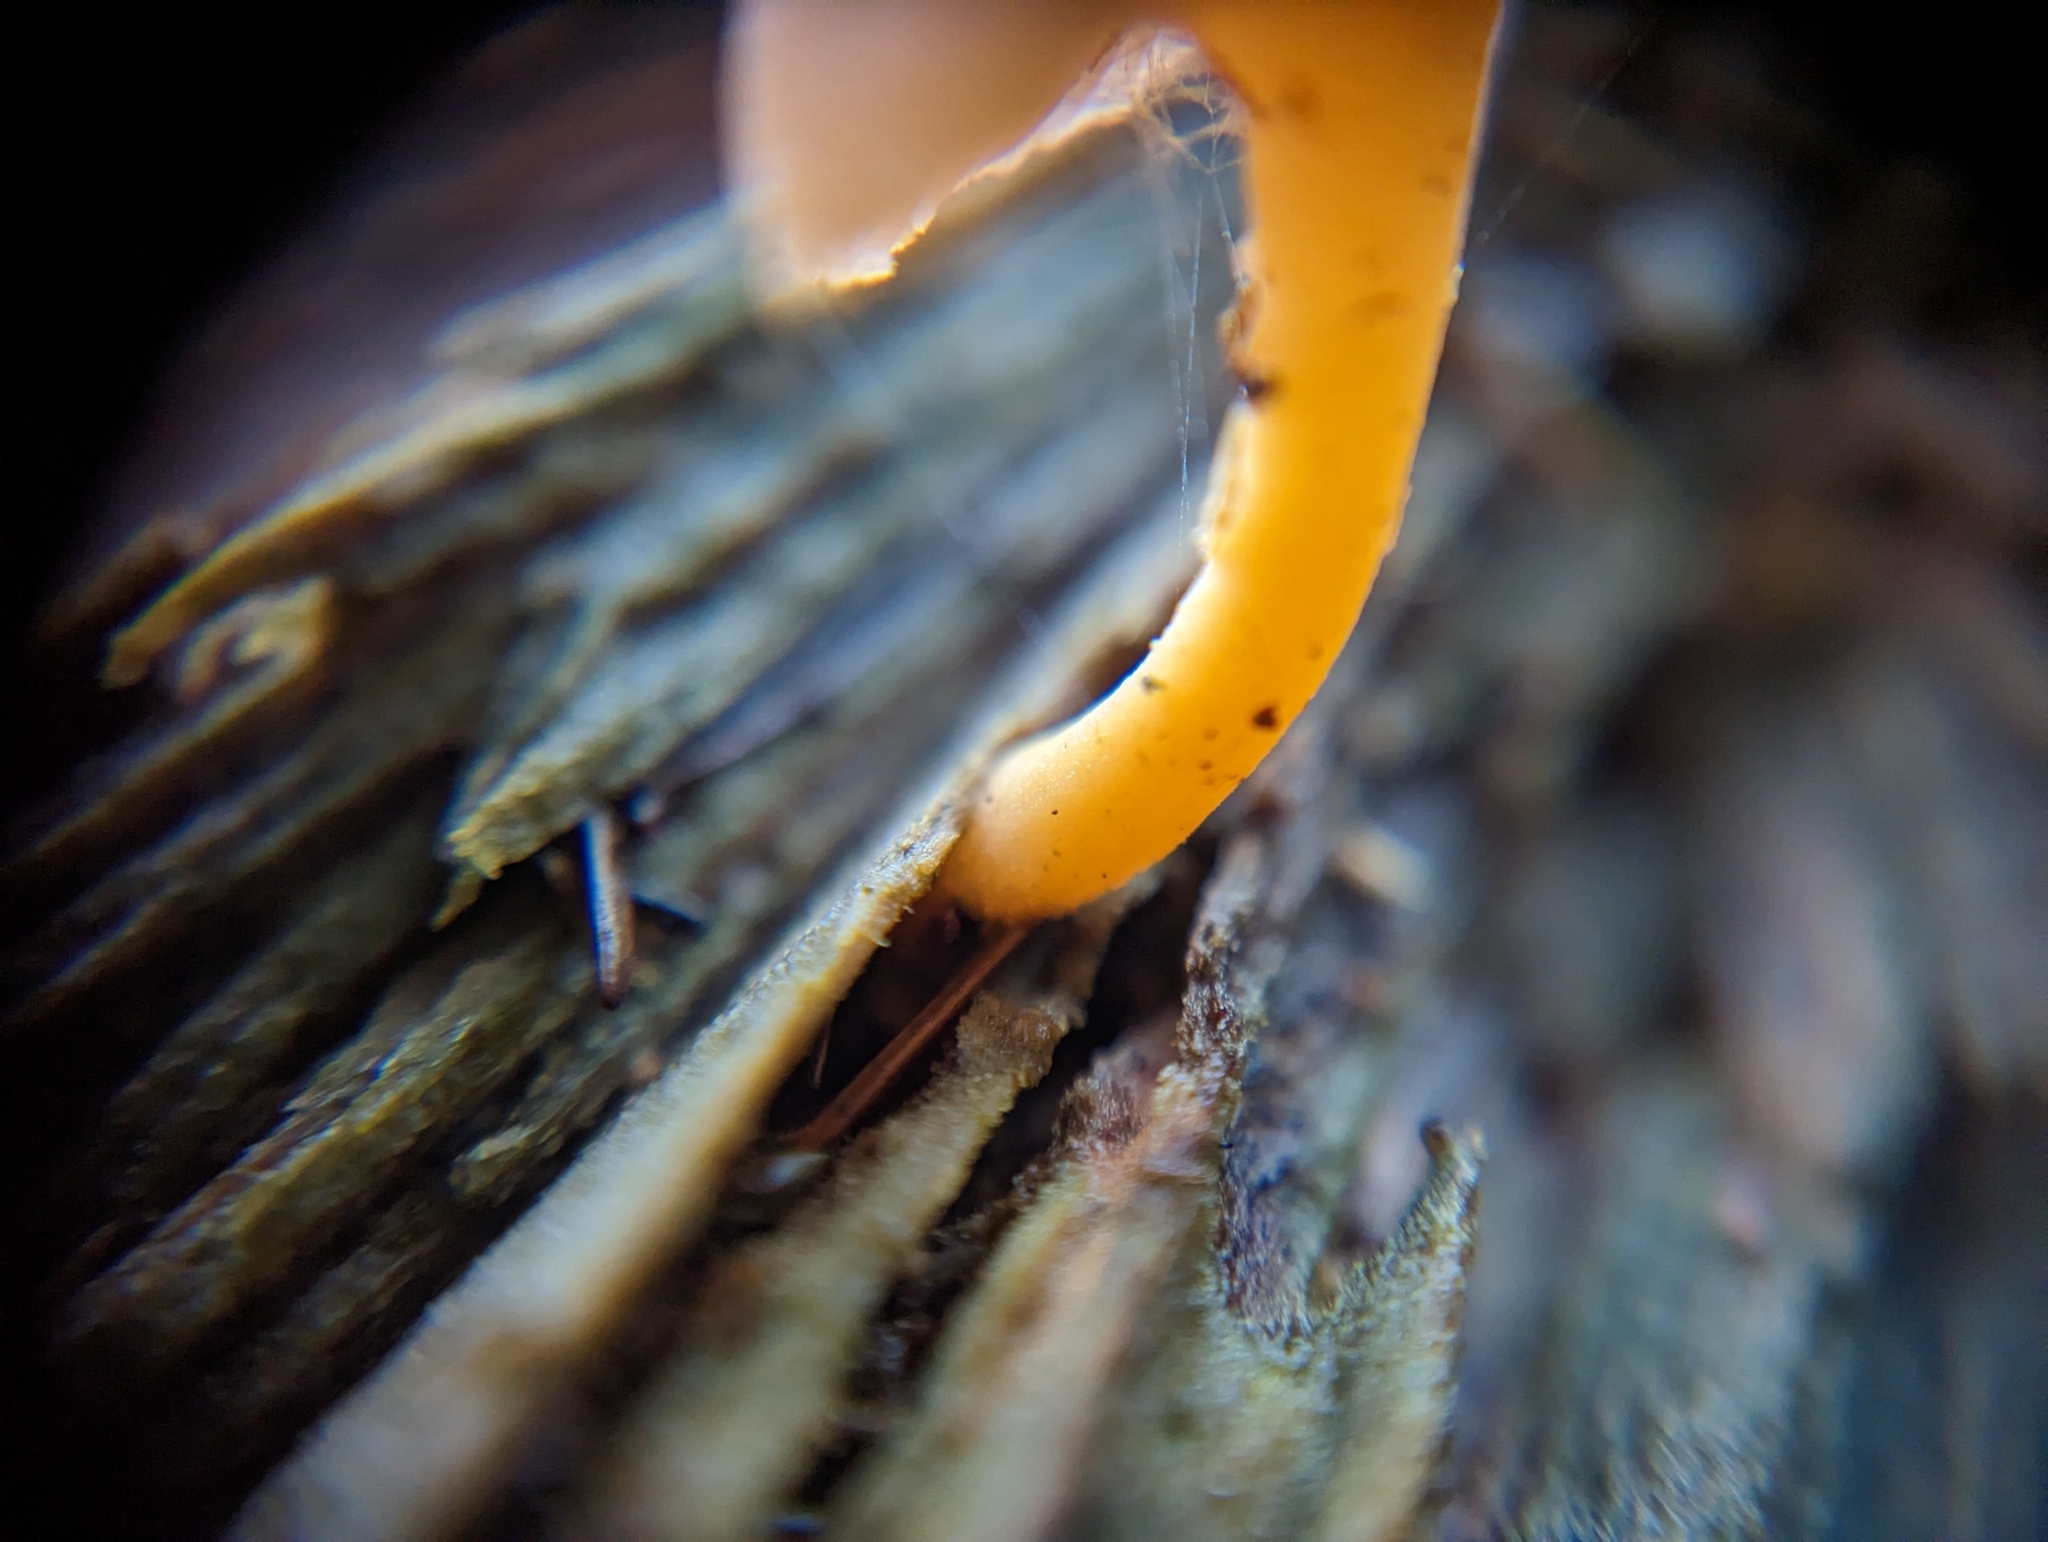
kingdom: Fungi
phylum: Basidiomycota
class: Agaricomycetes
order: Agaricales
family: Hygrophoraceae
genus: Chrysomphalina
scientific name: Chrysomphalina aurantiaca
